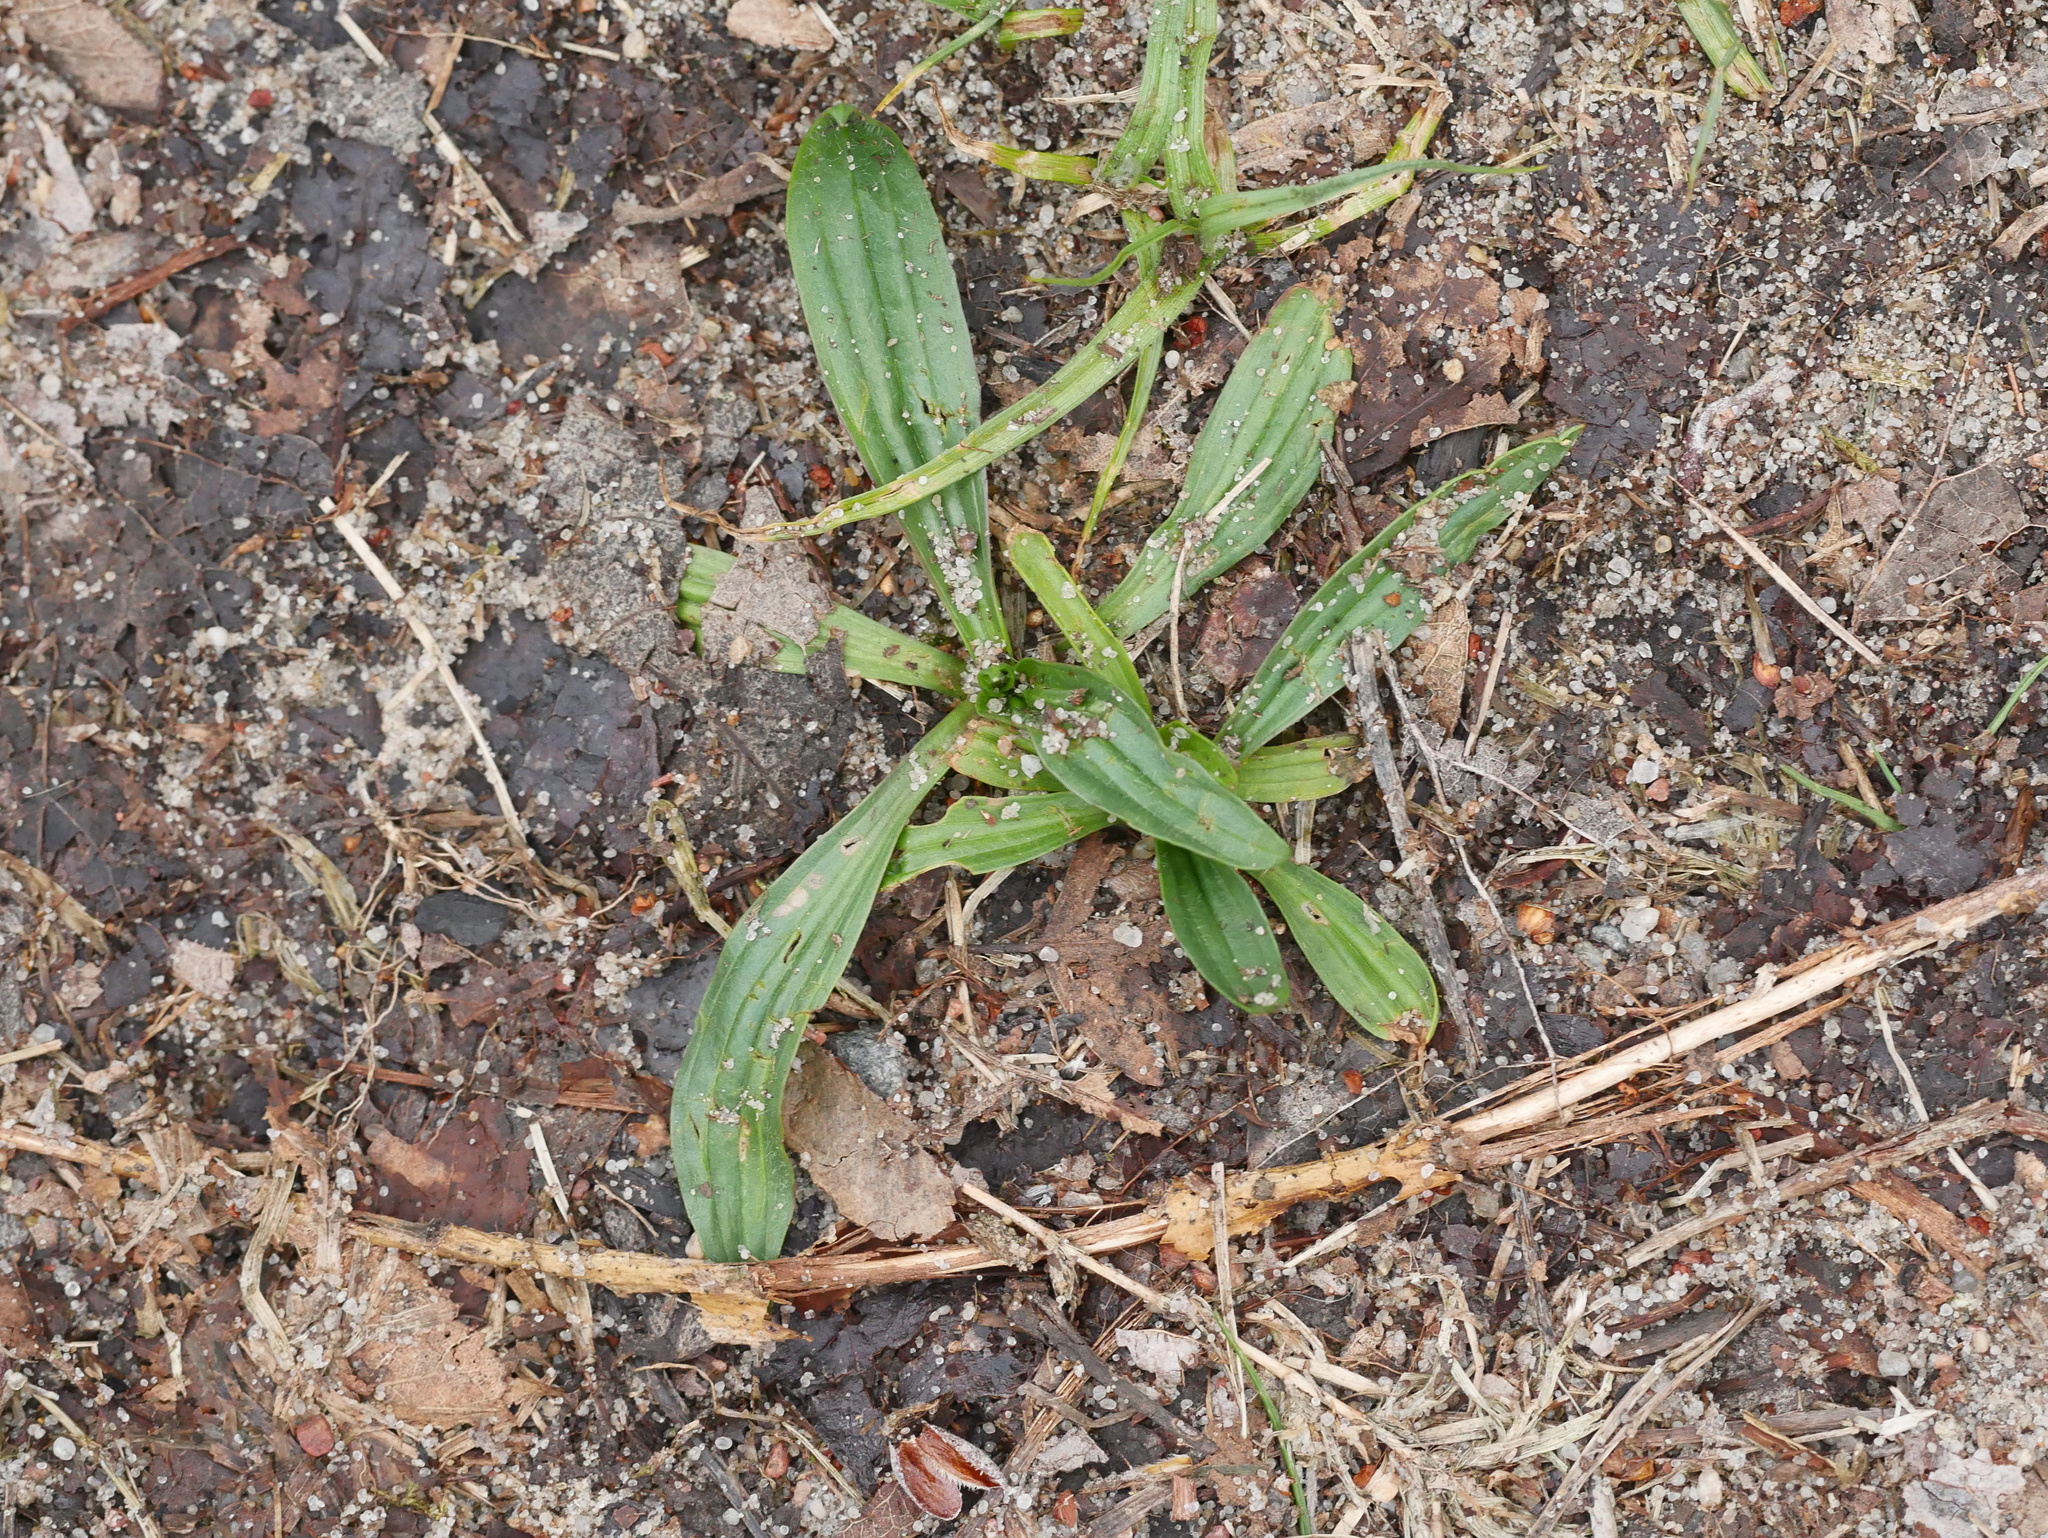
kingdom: Plantae
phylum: Tracheophyta
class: Magnoliopsida
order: Lamiales
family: Plantaginaceae
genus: Plantago
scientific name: Plantago lanceolata
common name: Ribwort plantain
